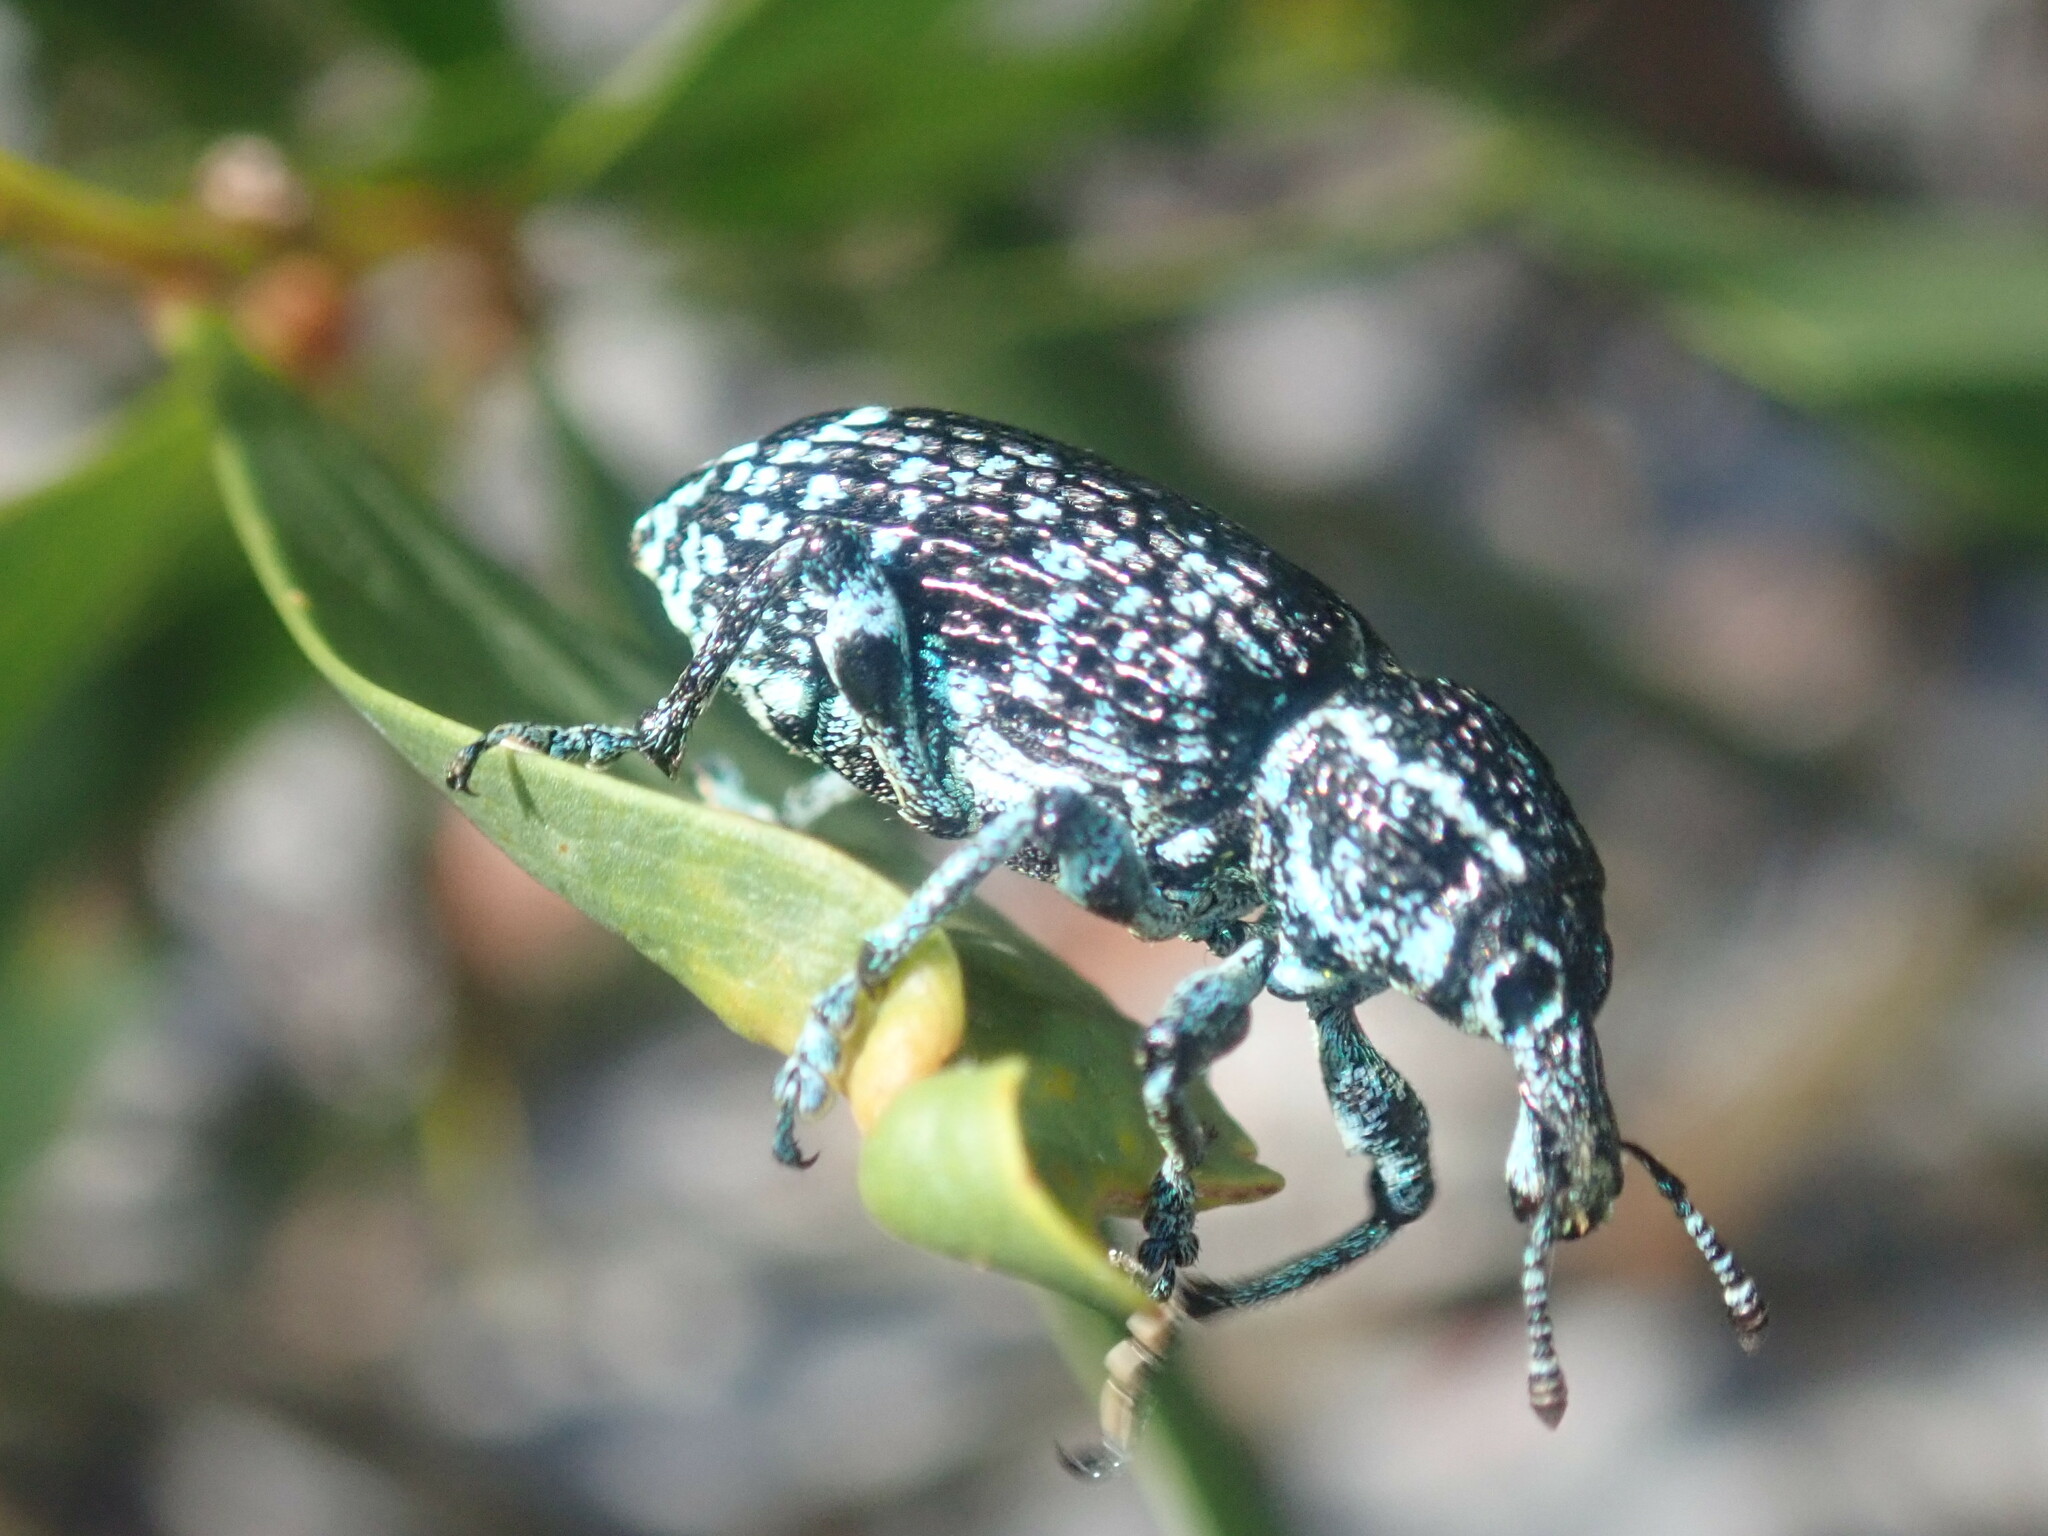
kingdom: Animalia
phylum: Arthropoda
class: Insecta
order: Coleoptera
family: Curculionidae
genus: Chrysolopus
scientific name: Chrysolopus spectabilis
